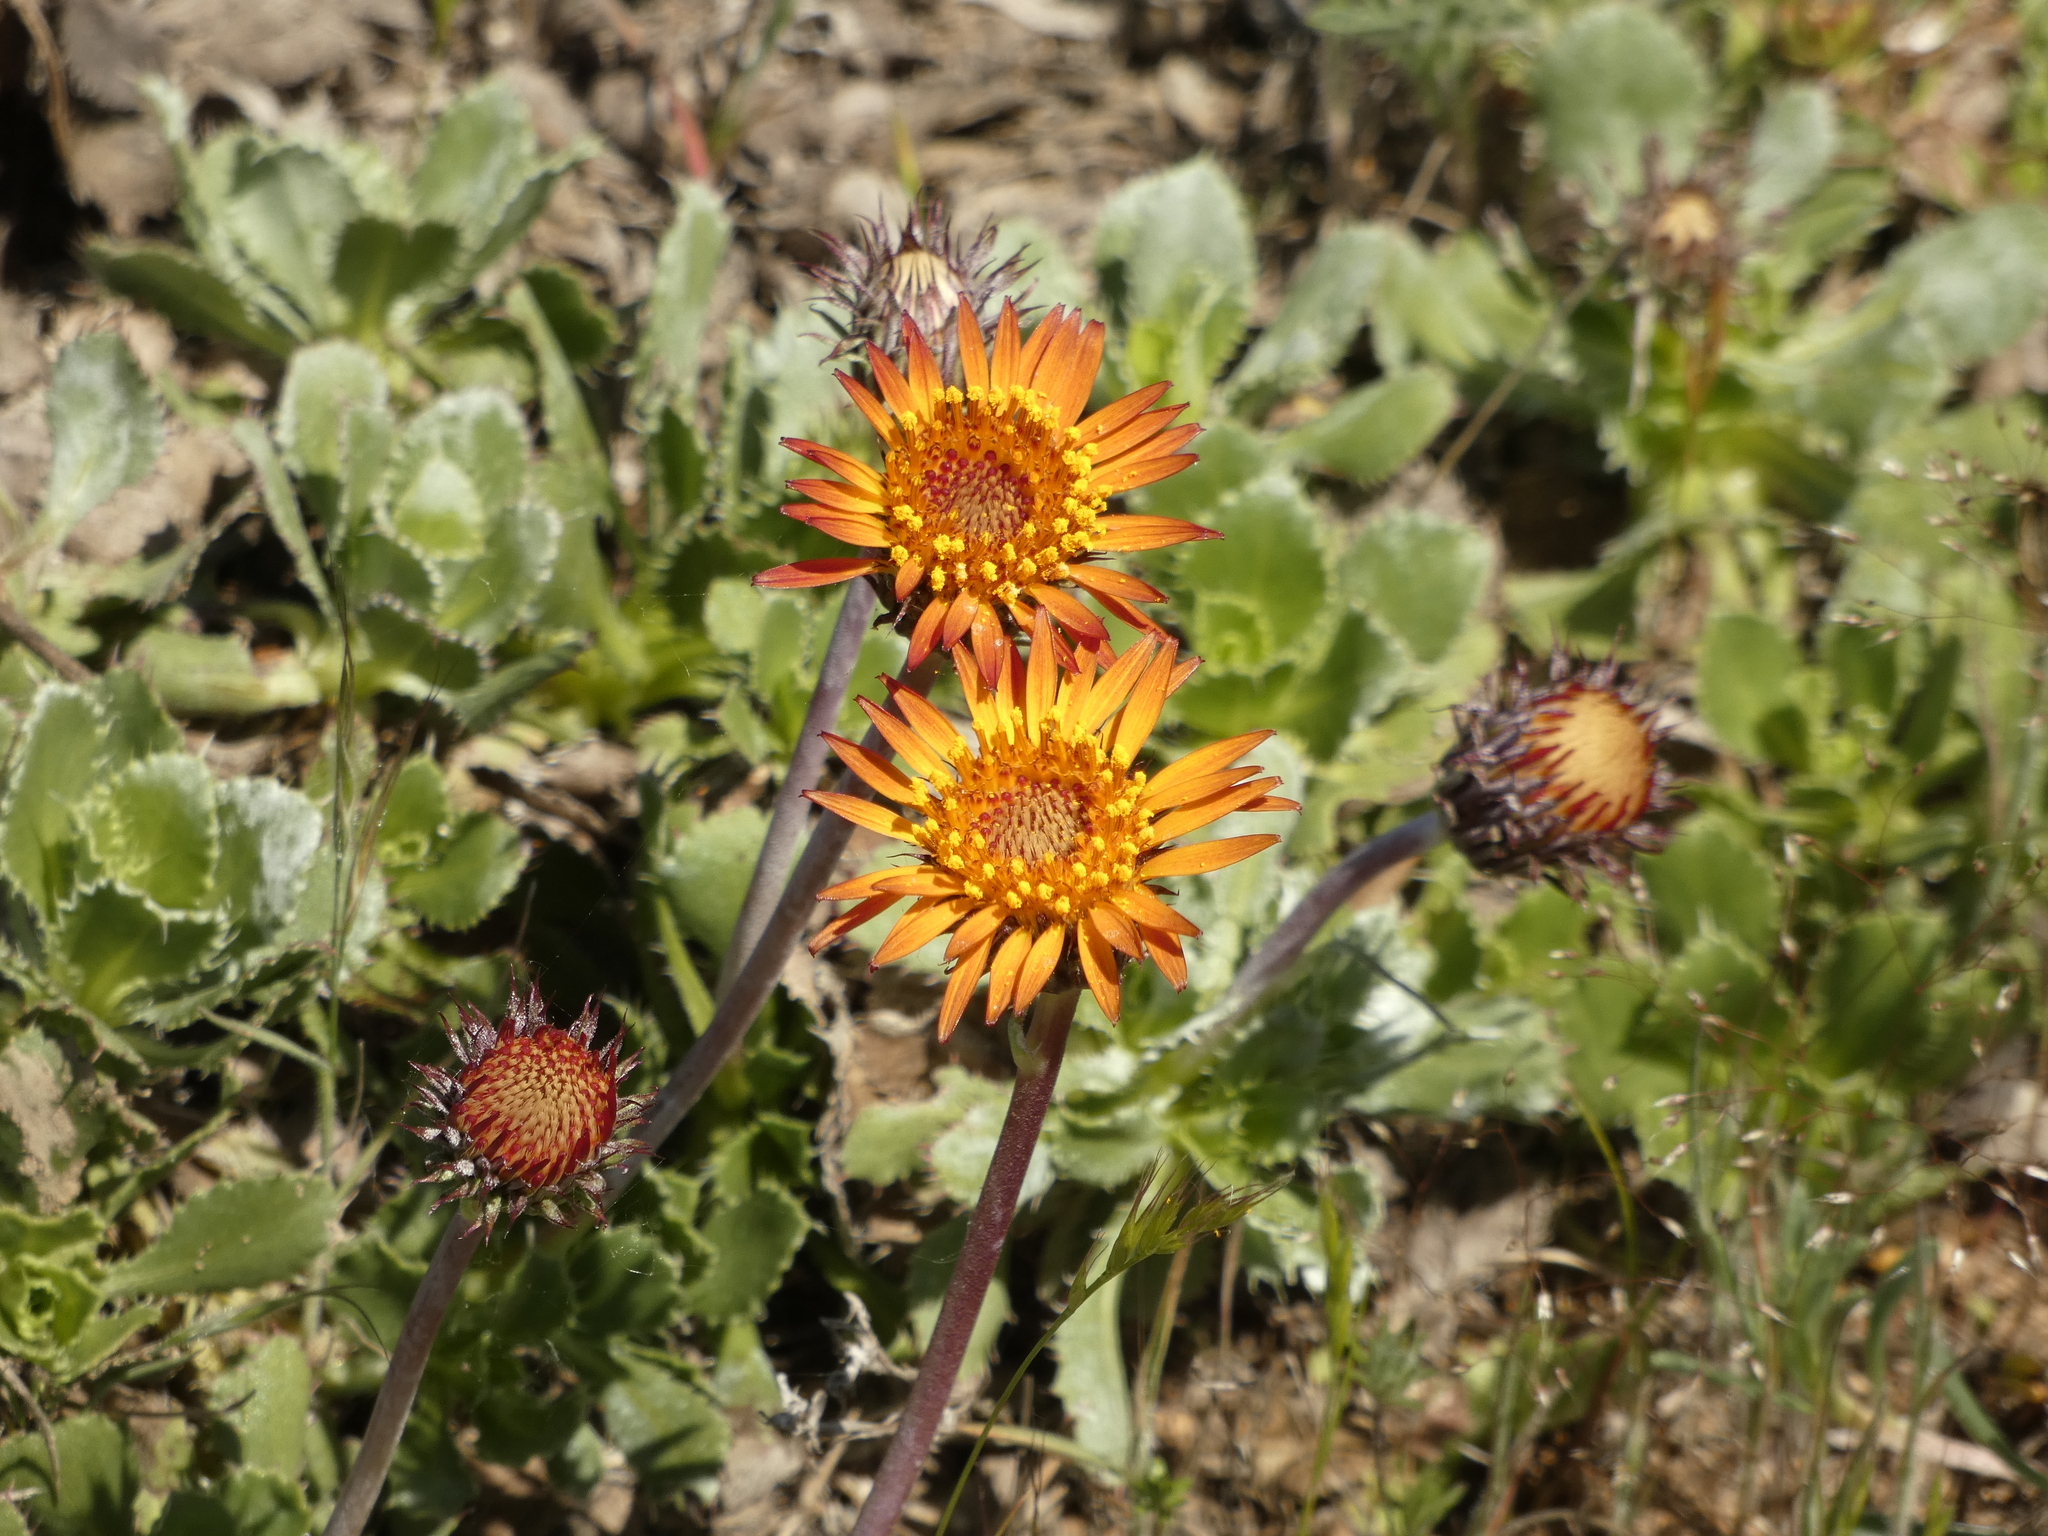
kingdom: Plantae
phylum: Tracheophyta
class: Magnoliopsida
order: Asterales
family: Asteraceae
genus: Haplopappus
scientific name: Haplopappus macrocephalus
